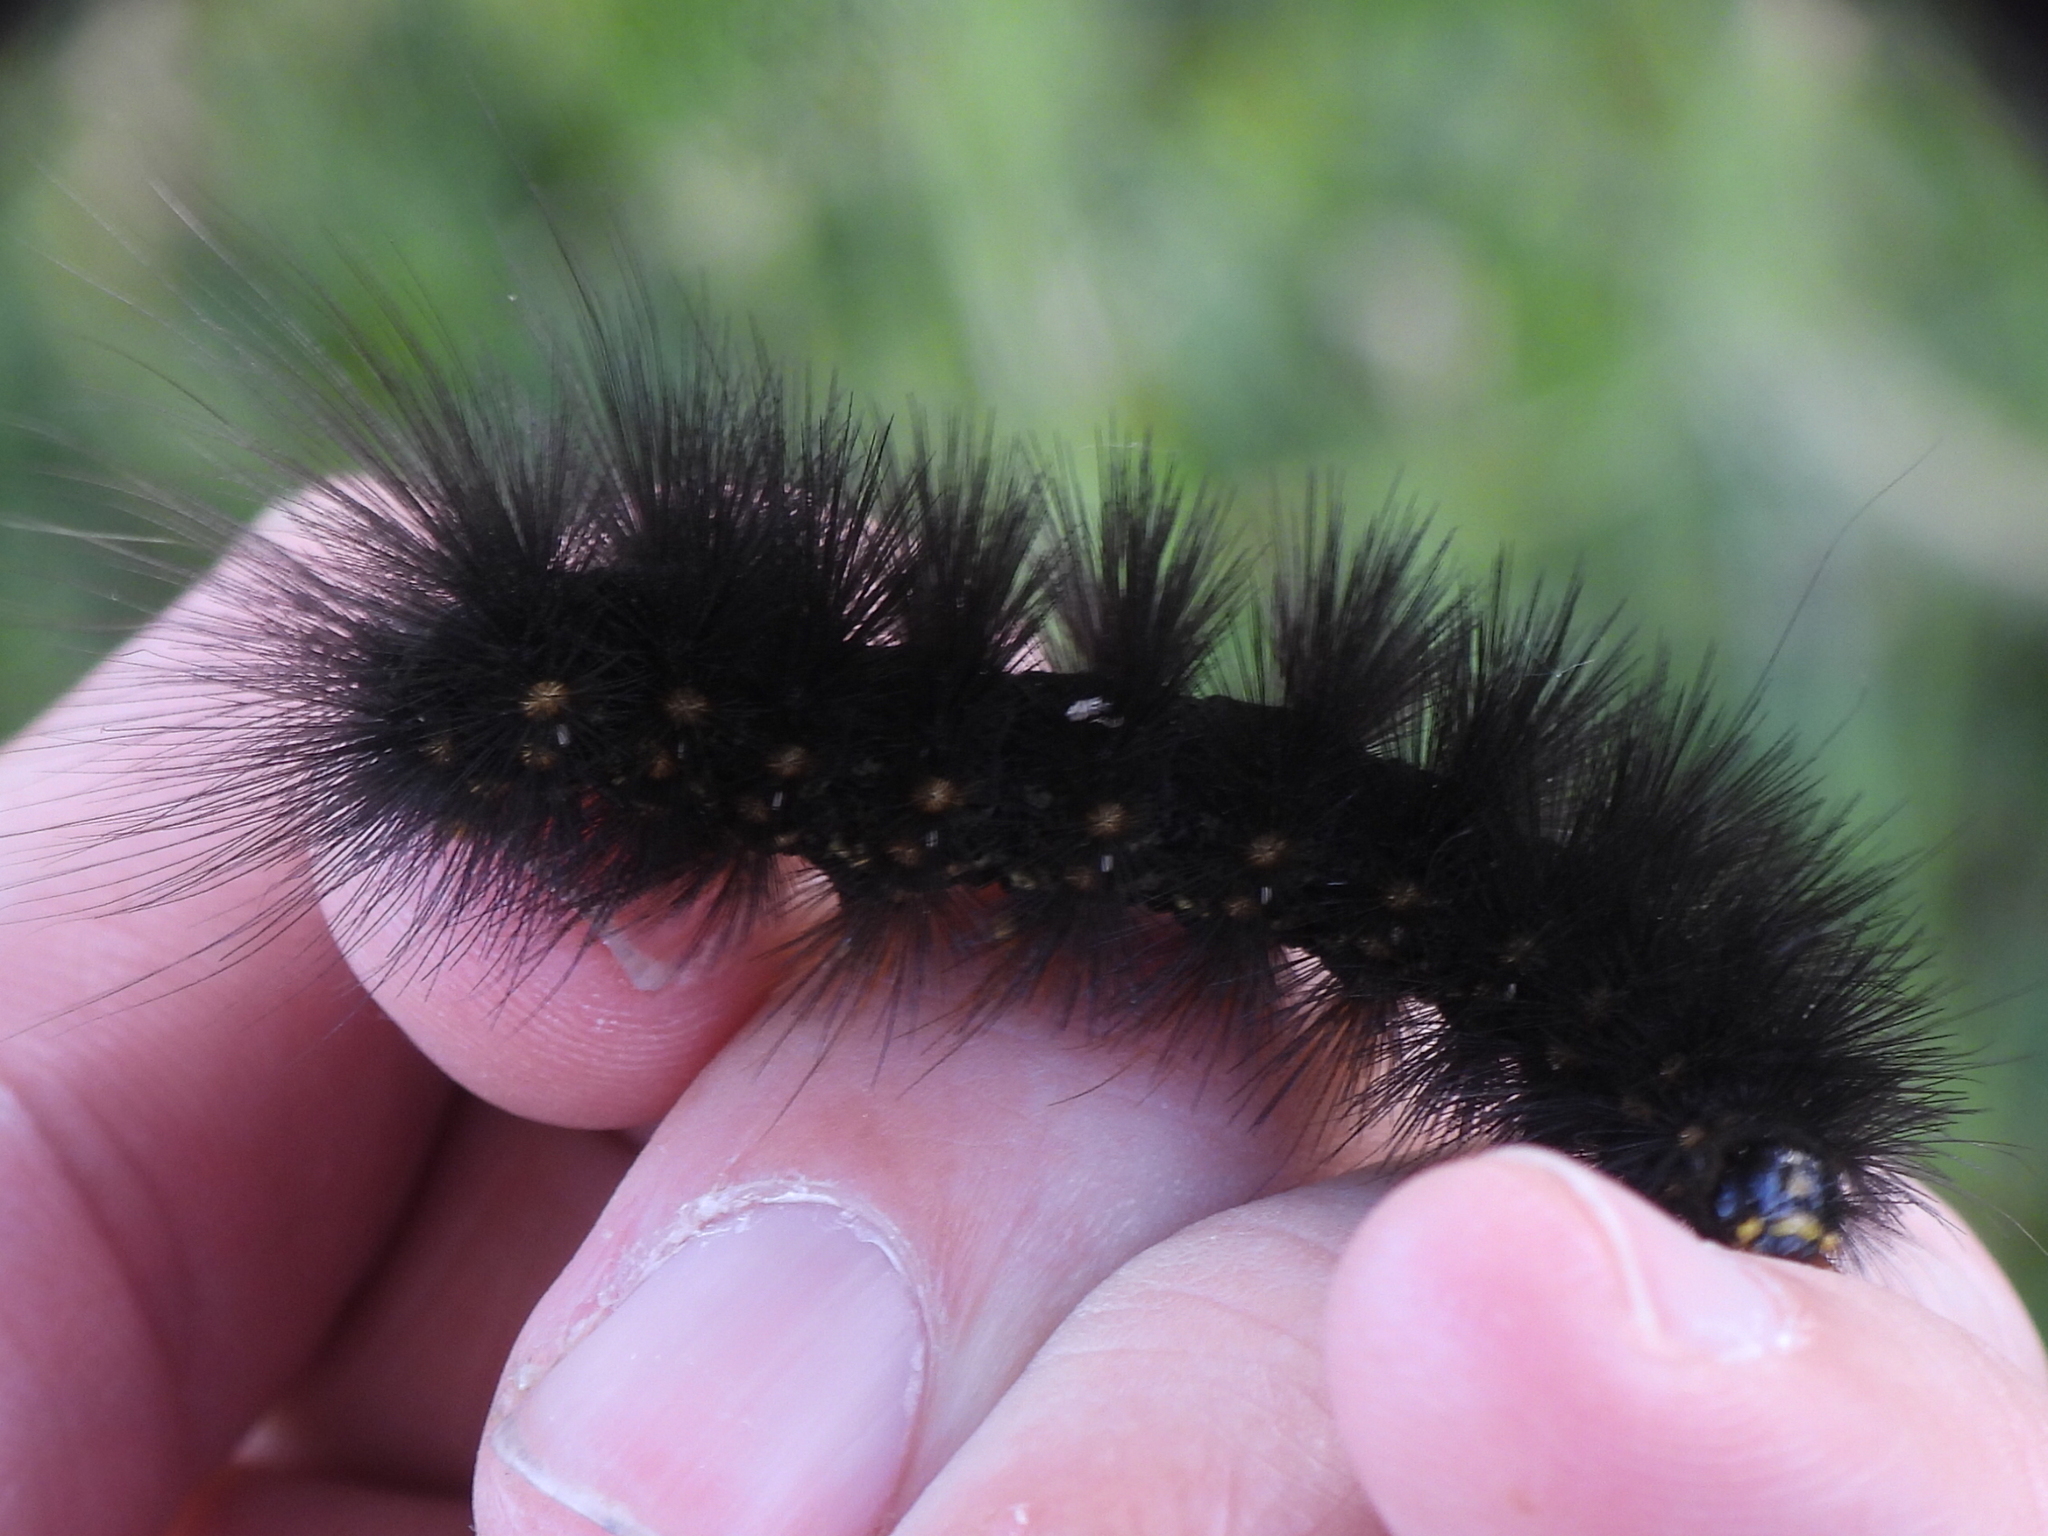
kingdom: Animalia
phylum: Arthropoda
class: Insecta
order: Lepidoptera
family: Erebidae
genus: Estigmene
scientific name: Estigmene acrea
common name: Salt marsh moth
